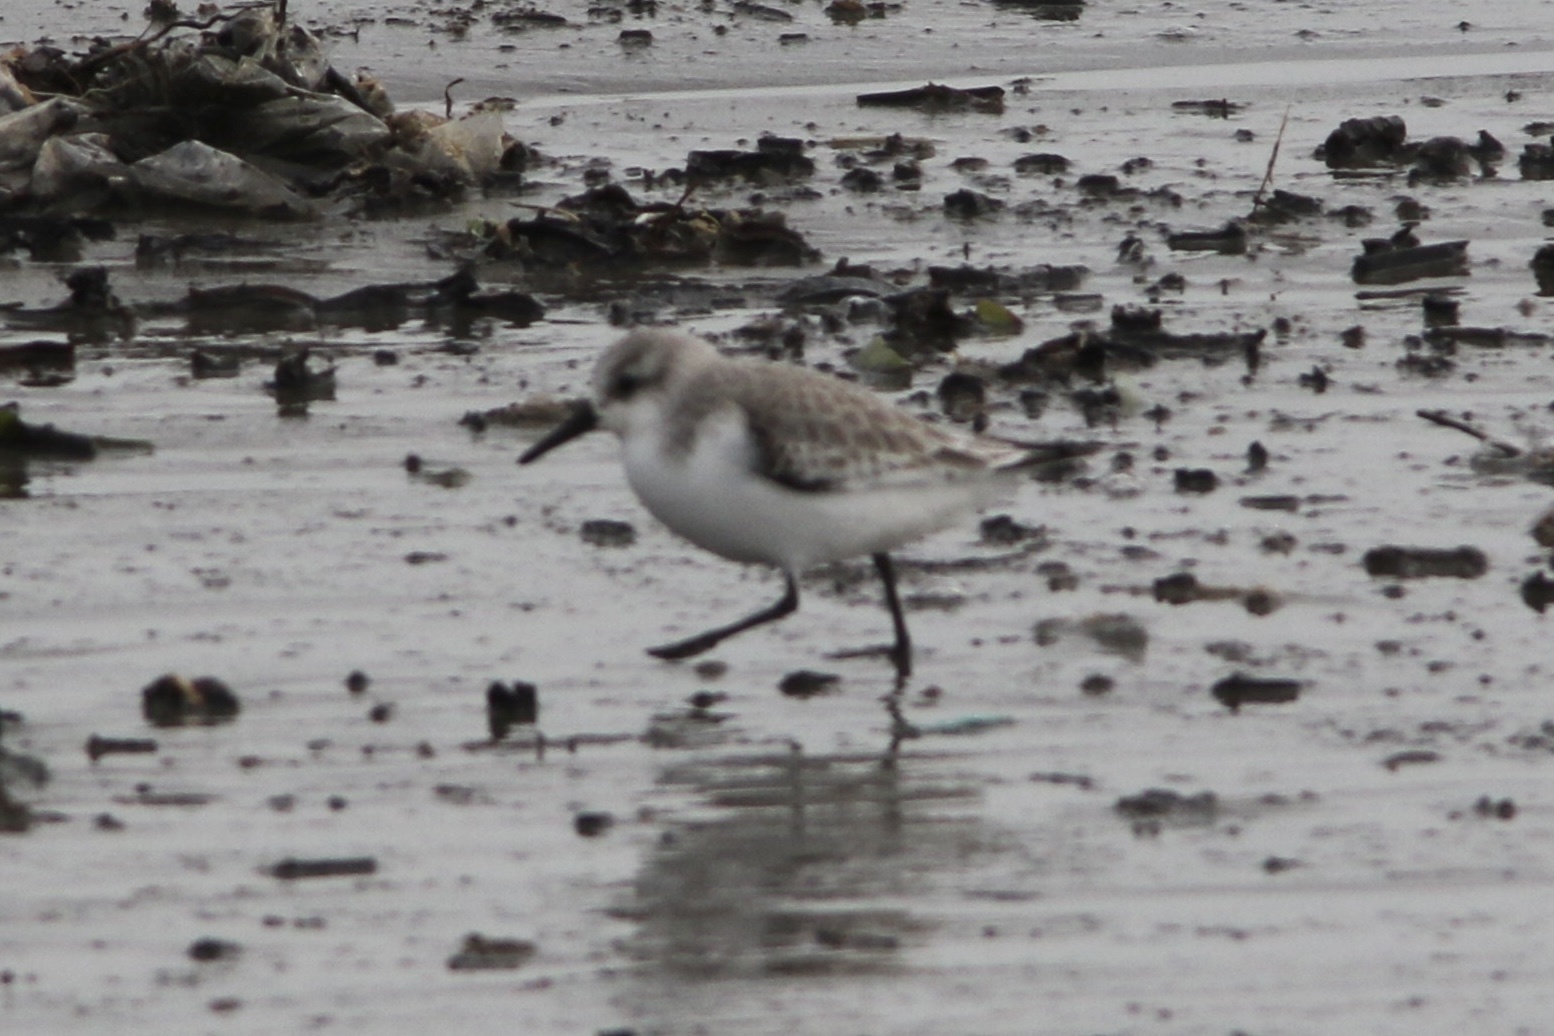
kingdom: Animalia
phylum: Chordata
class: Aves
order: Charadriiformes
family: Scolopacidae
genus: Calidris
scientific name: Calidris mauri
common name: Western sandpiper
